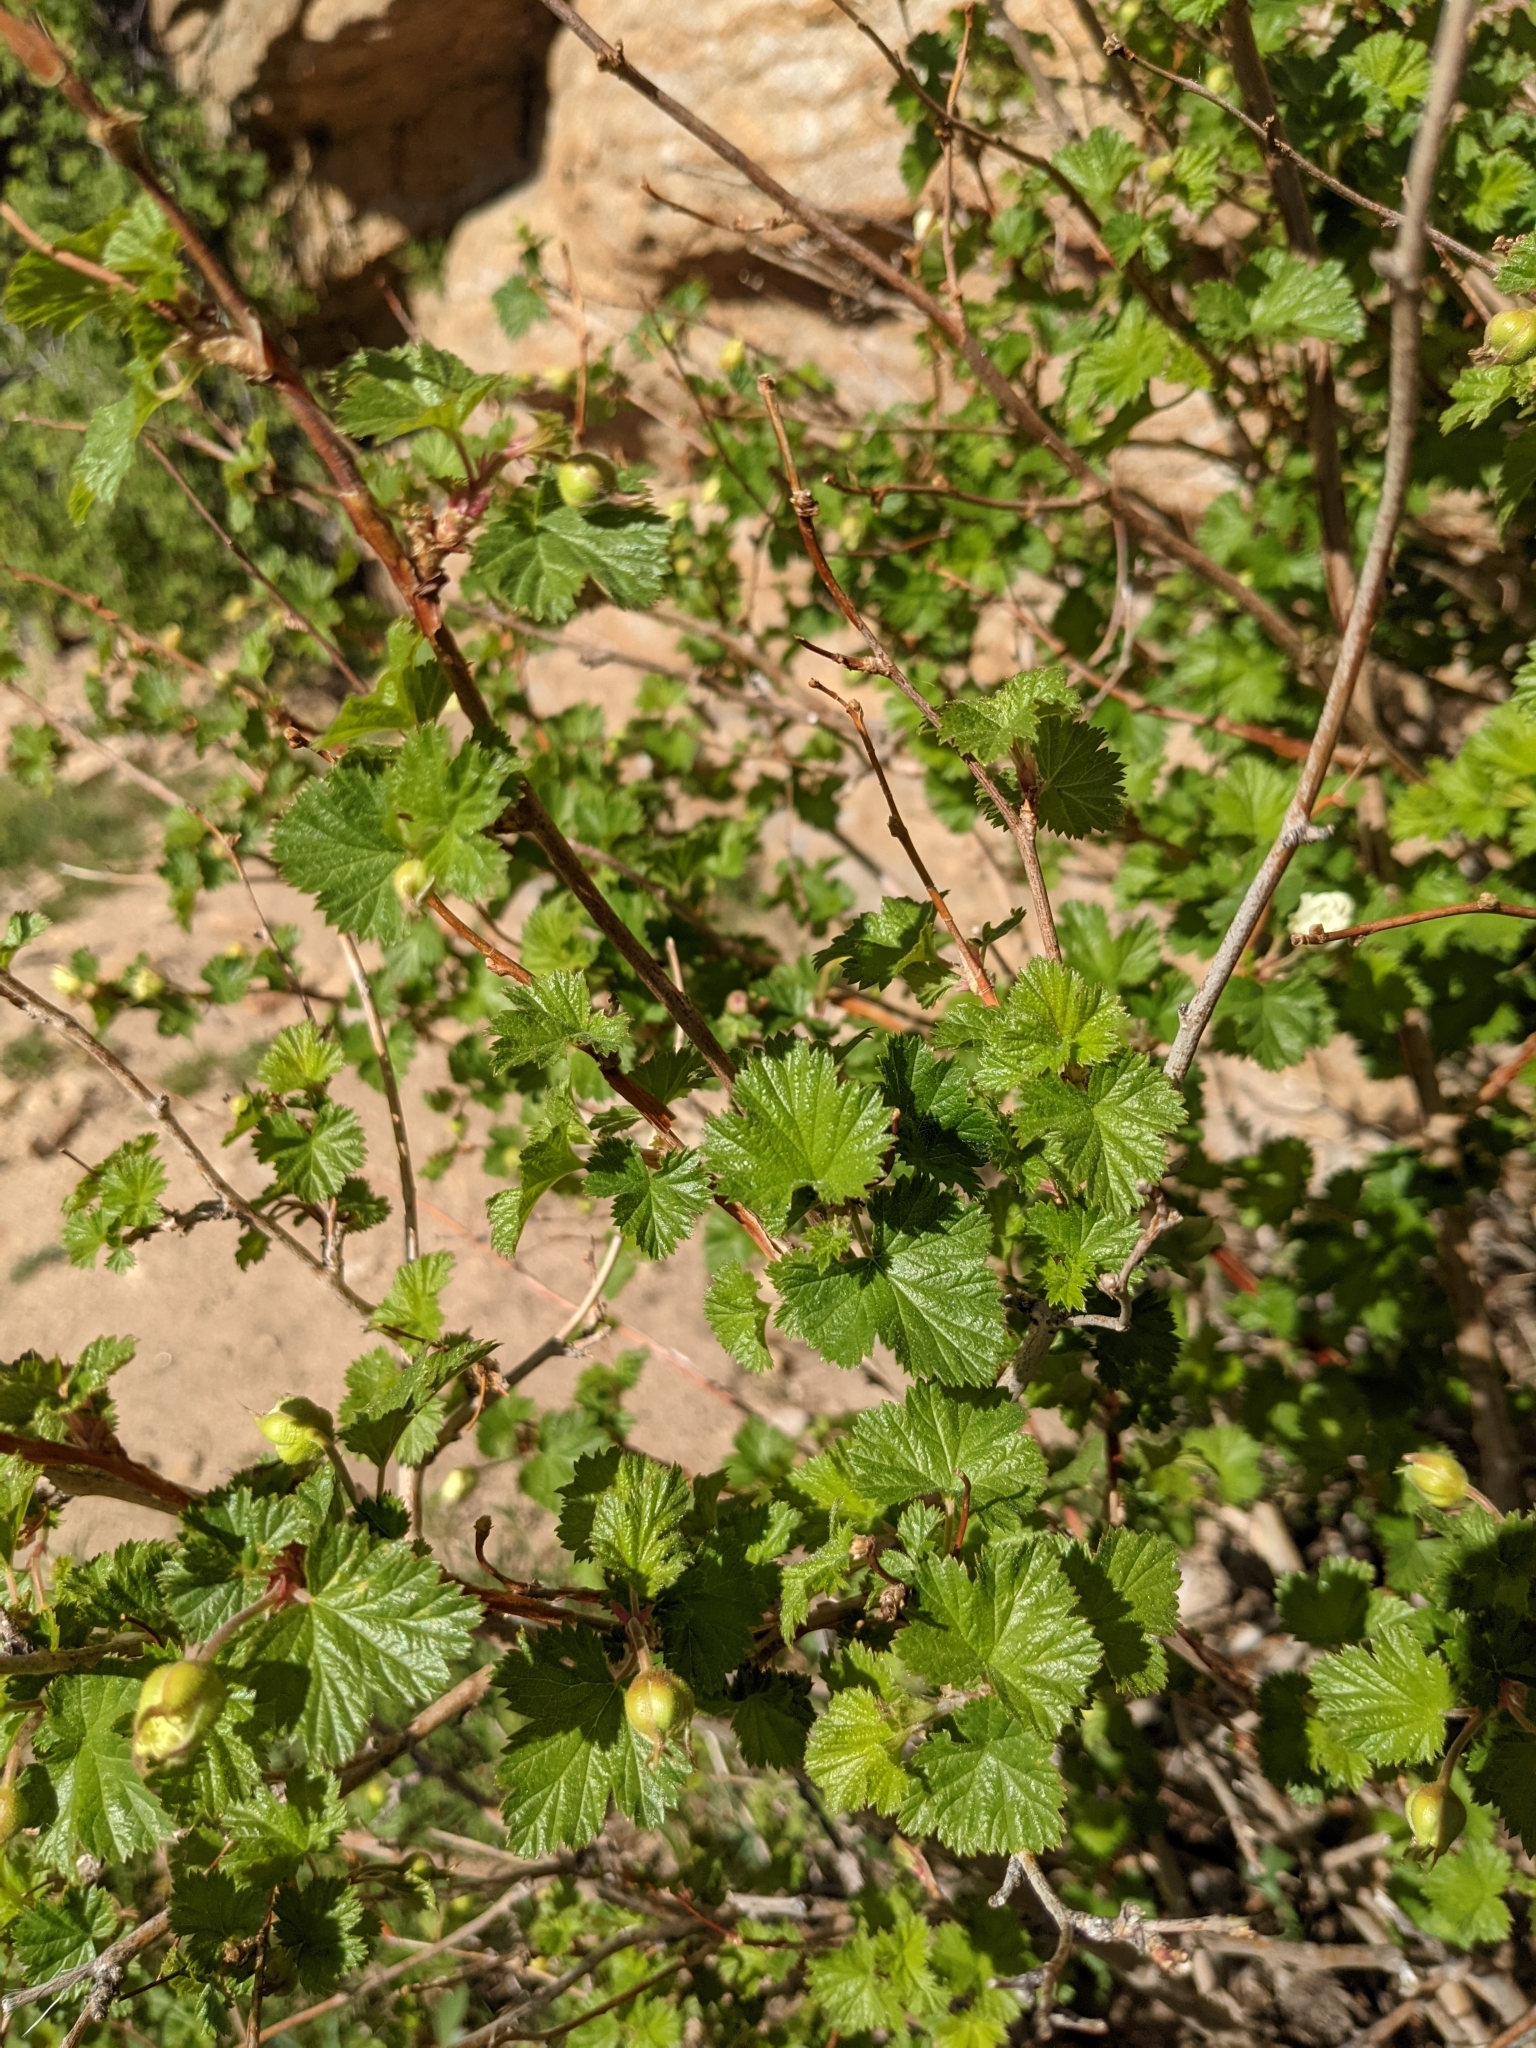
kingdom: Plantae
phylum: Tracheophyta
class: Magnoliopsida
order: Rosales
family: Rosaceae
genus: Rubus
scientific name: Rubus deliciosus
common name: Rocky mountain raspberry
